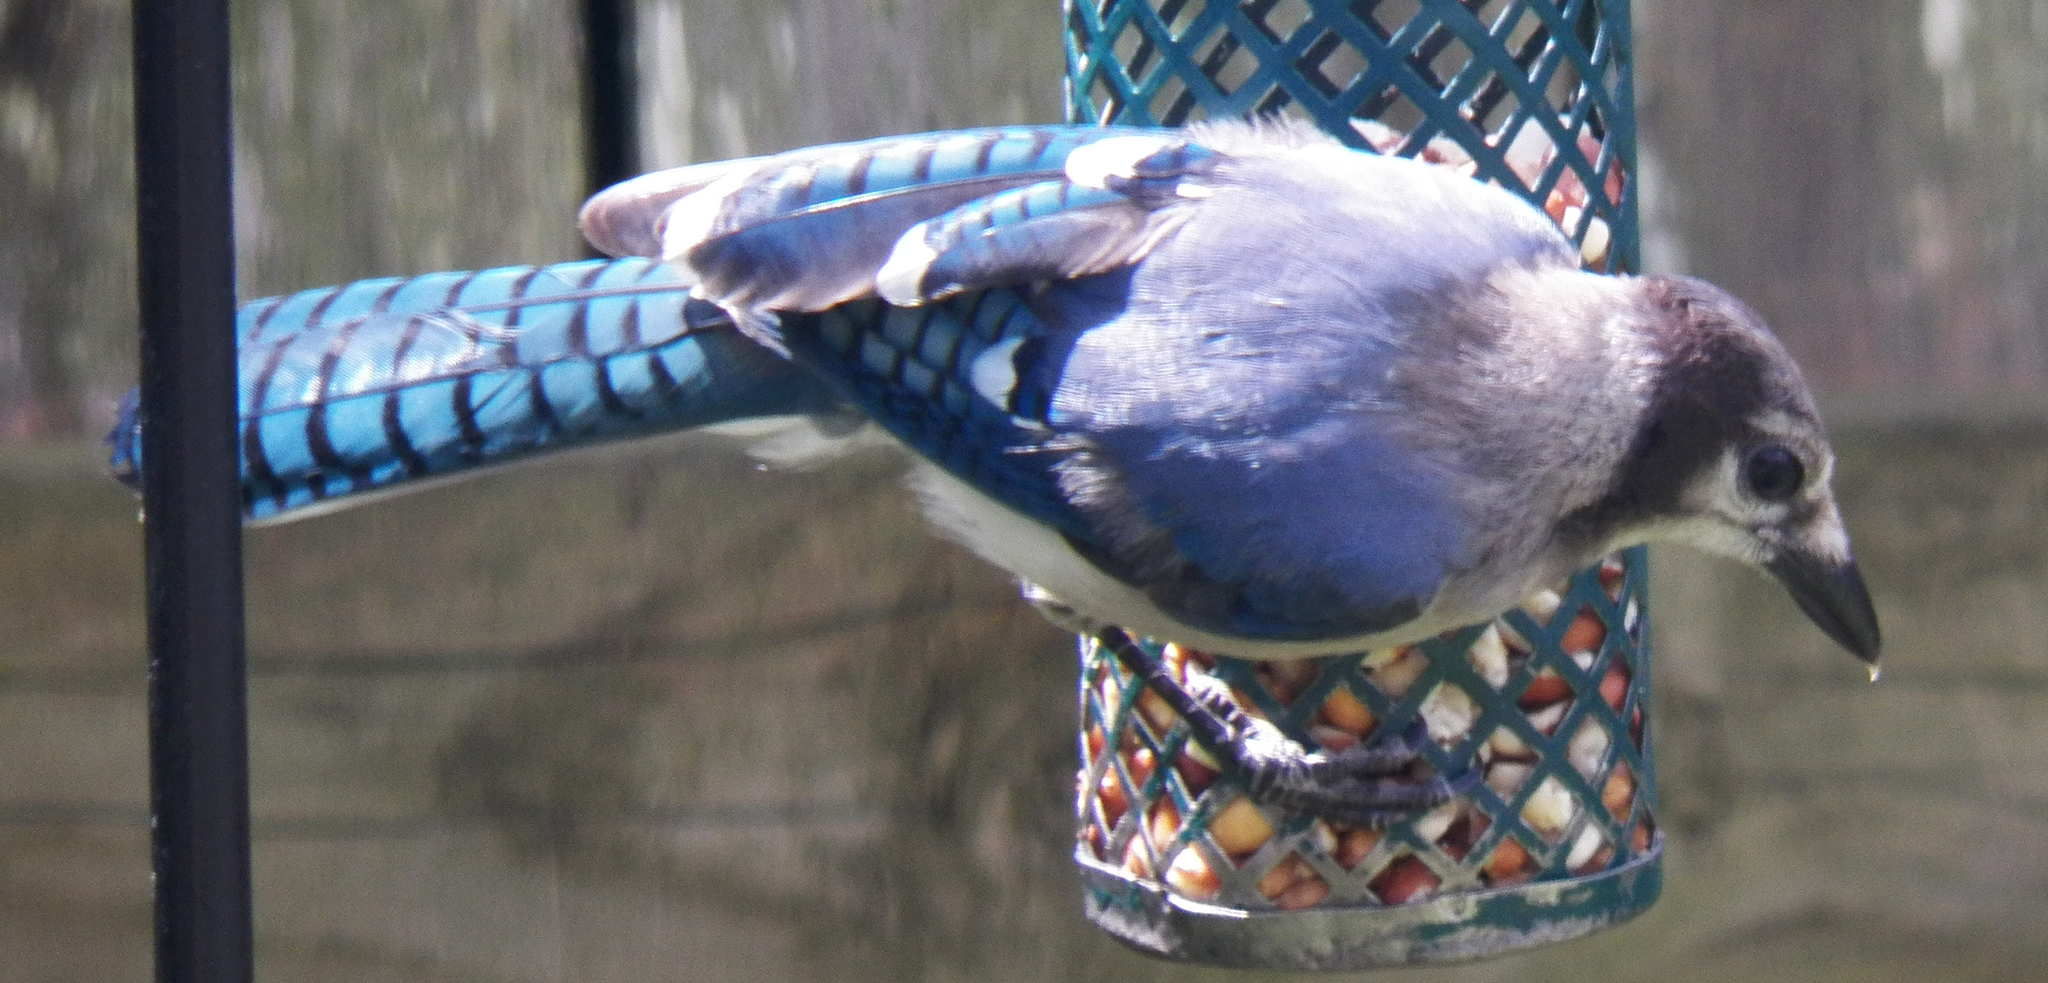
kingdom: Animalia
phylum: Chordata
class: Aves
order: Passeriformes
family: Corvidae
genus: Cyanocitta
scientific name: Cyanocitta cristata
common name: Blue jay
